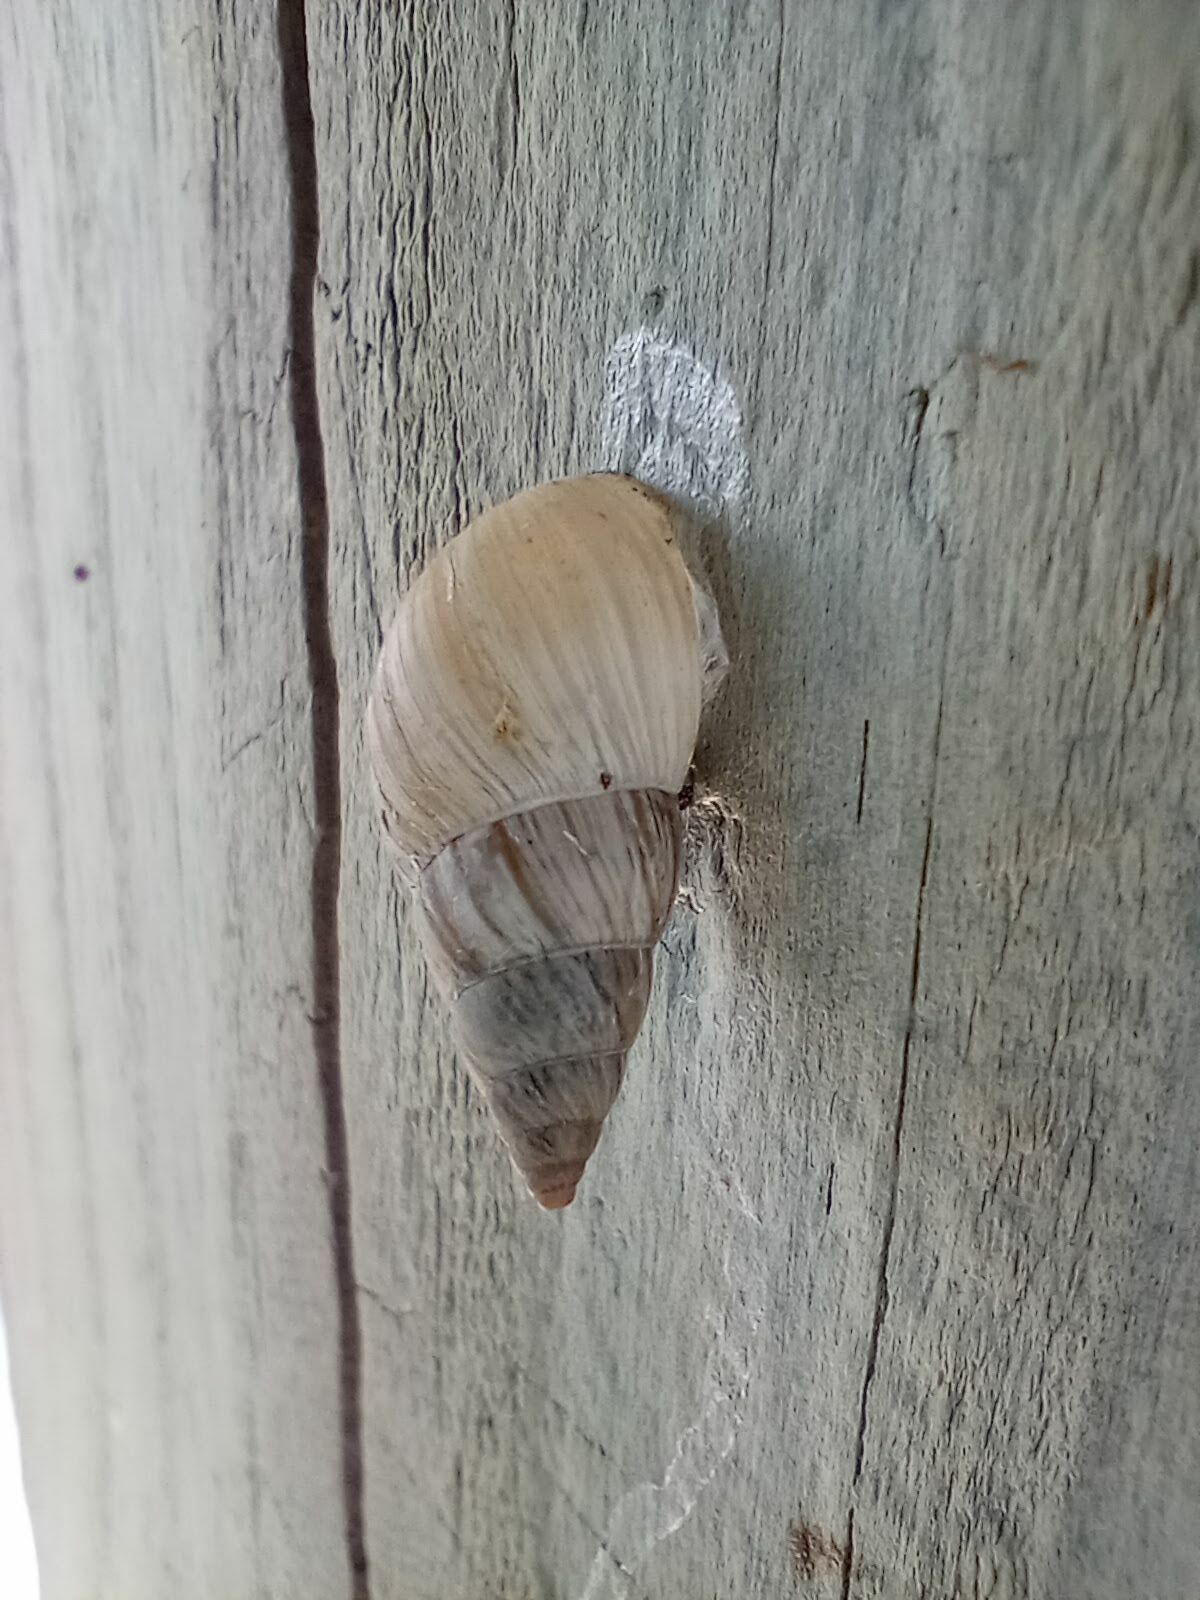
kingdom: Animalia
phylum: Mollusca
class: Gastropoda
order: Stylommatophora
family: Bulimulidae
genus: Bulimulus
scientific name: Bulimulus bonariensis
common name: Snail
